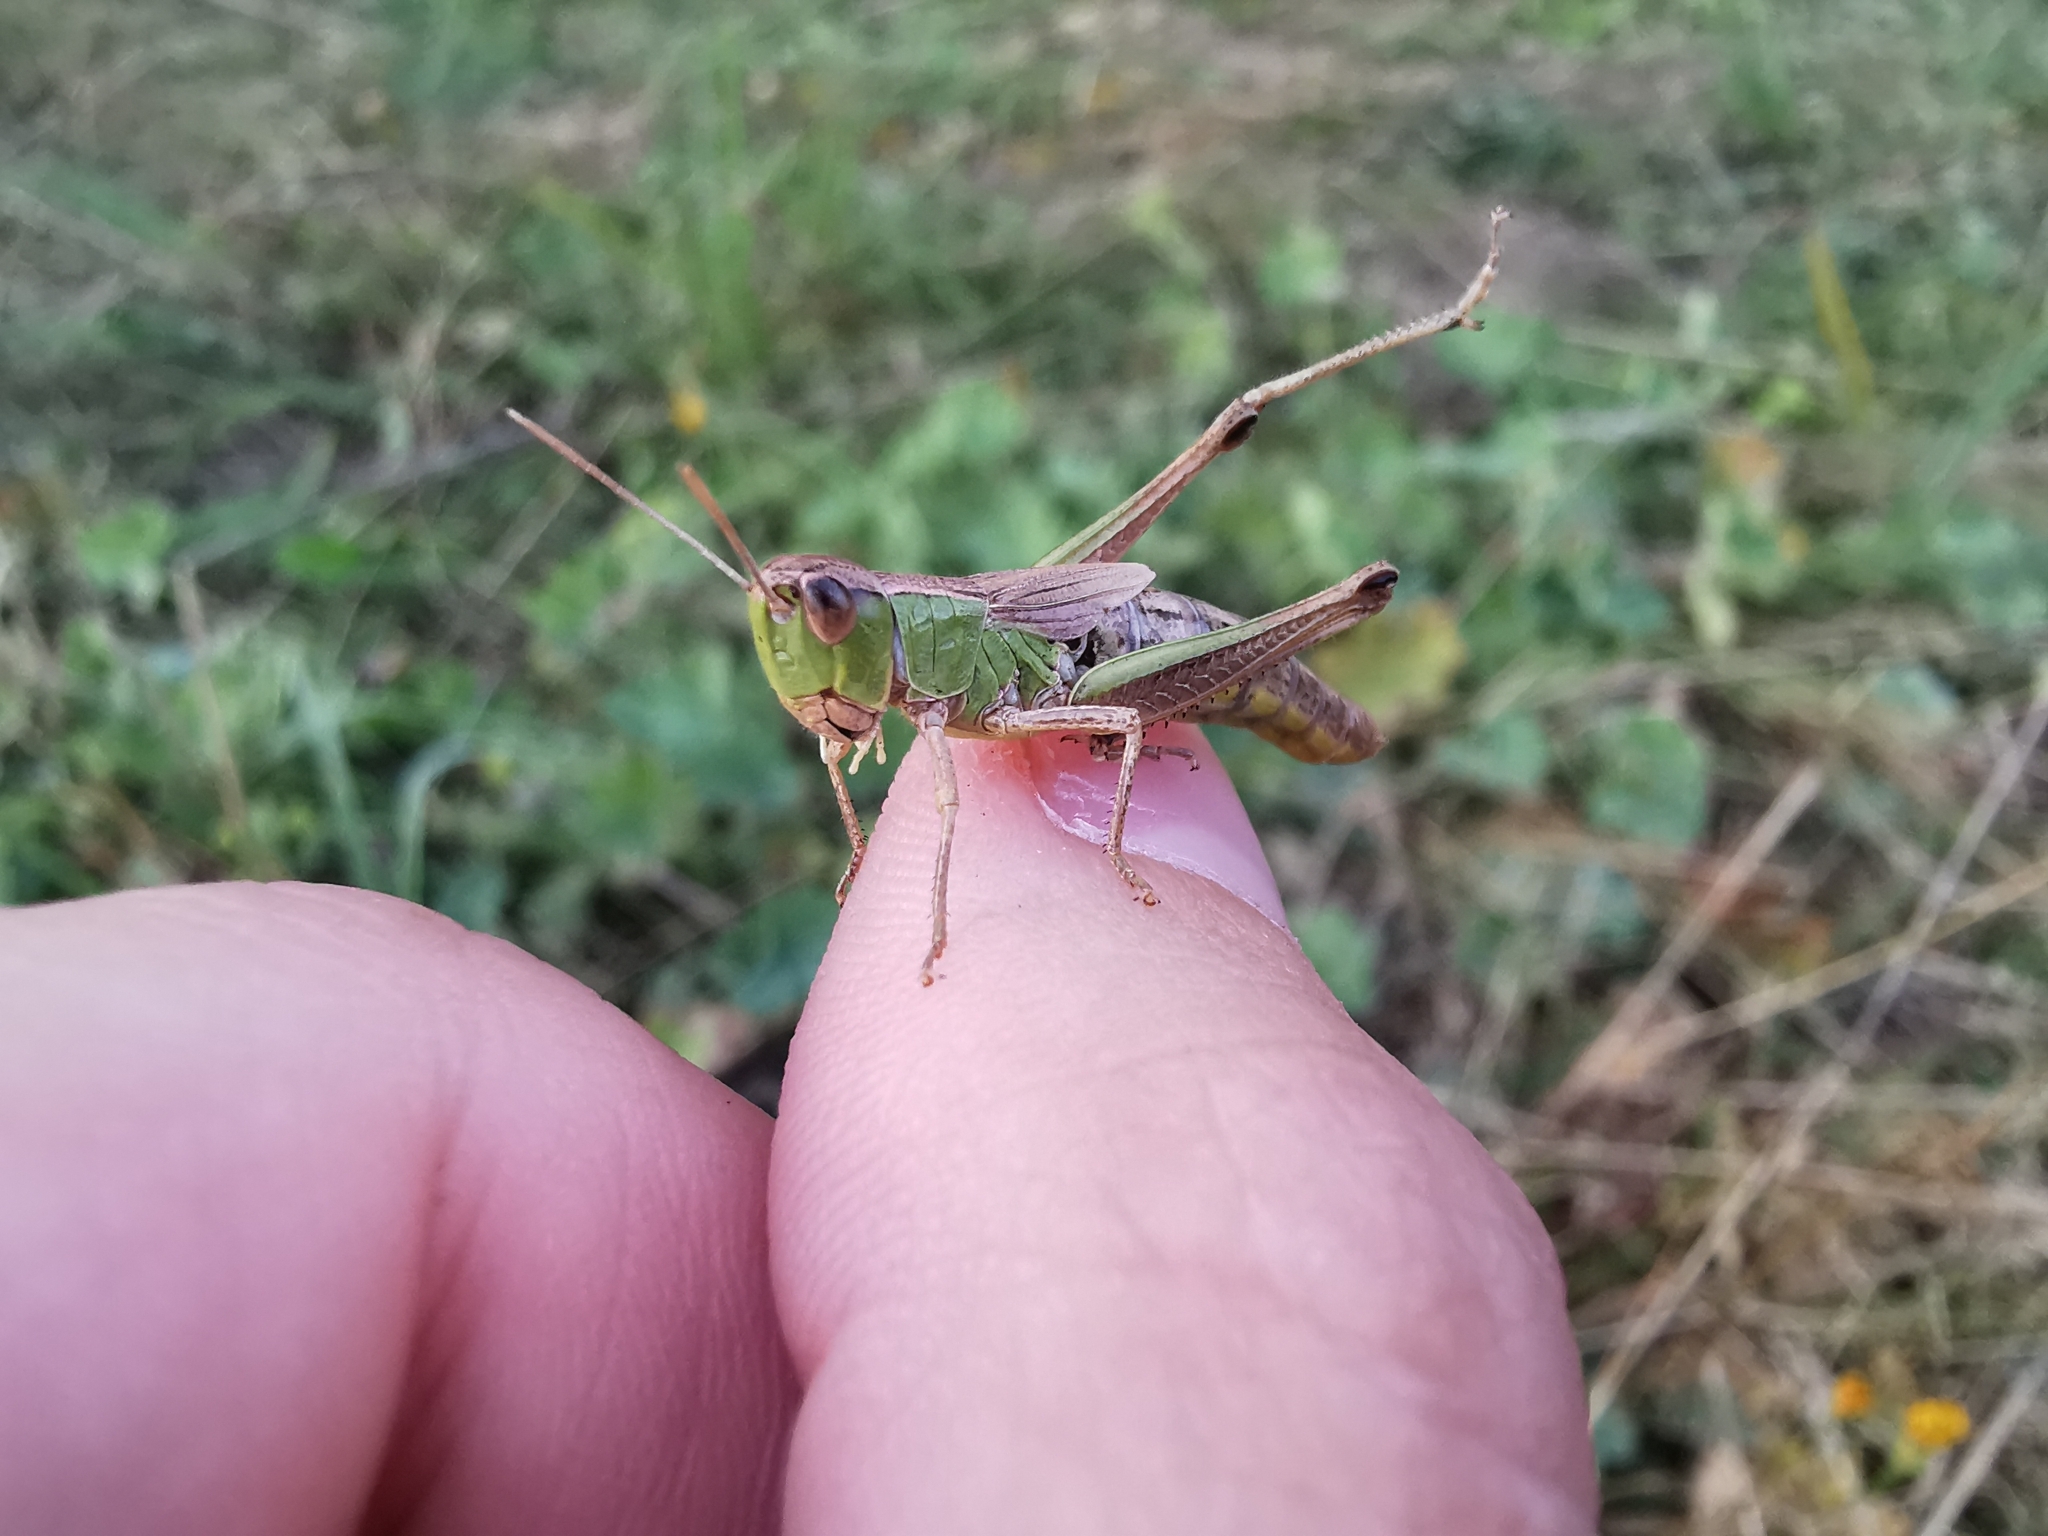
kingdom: Animalia
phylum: Arthropoda
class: Insecta
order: Orthoptera
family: Acrididae
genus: Pseudochorthippus
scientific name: Pseudochorthippus parallelus
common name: Meadow grasshopper
